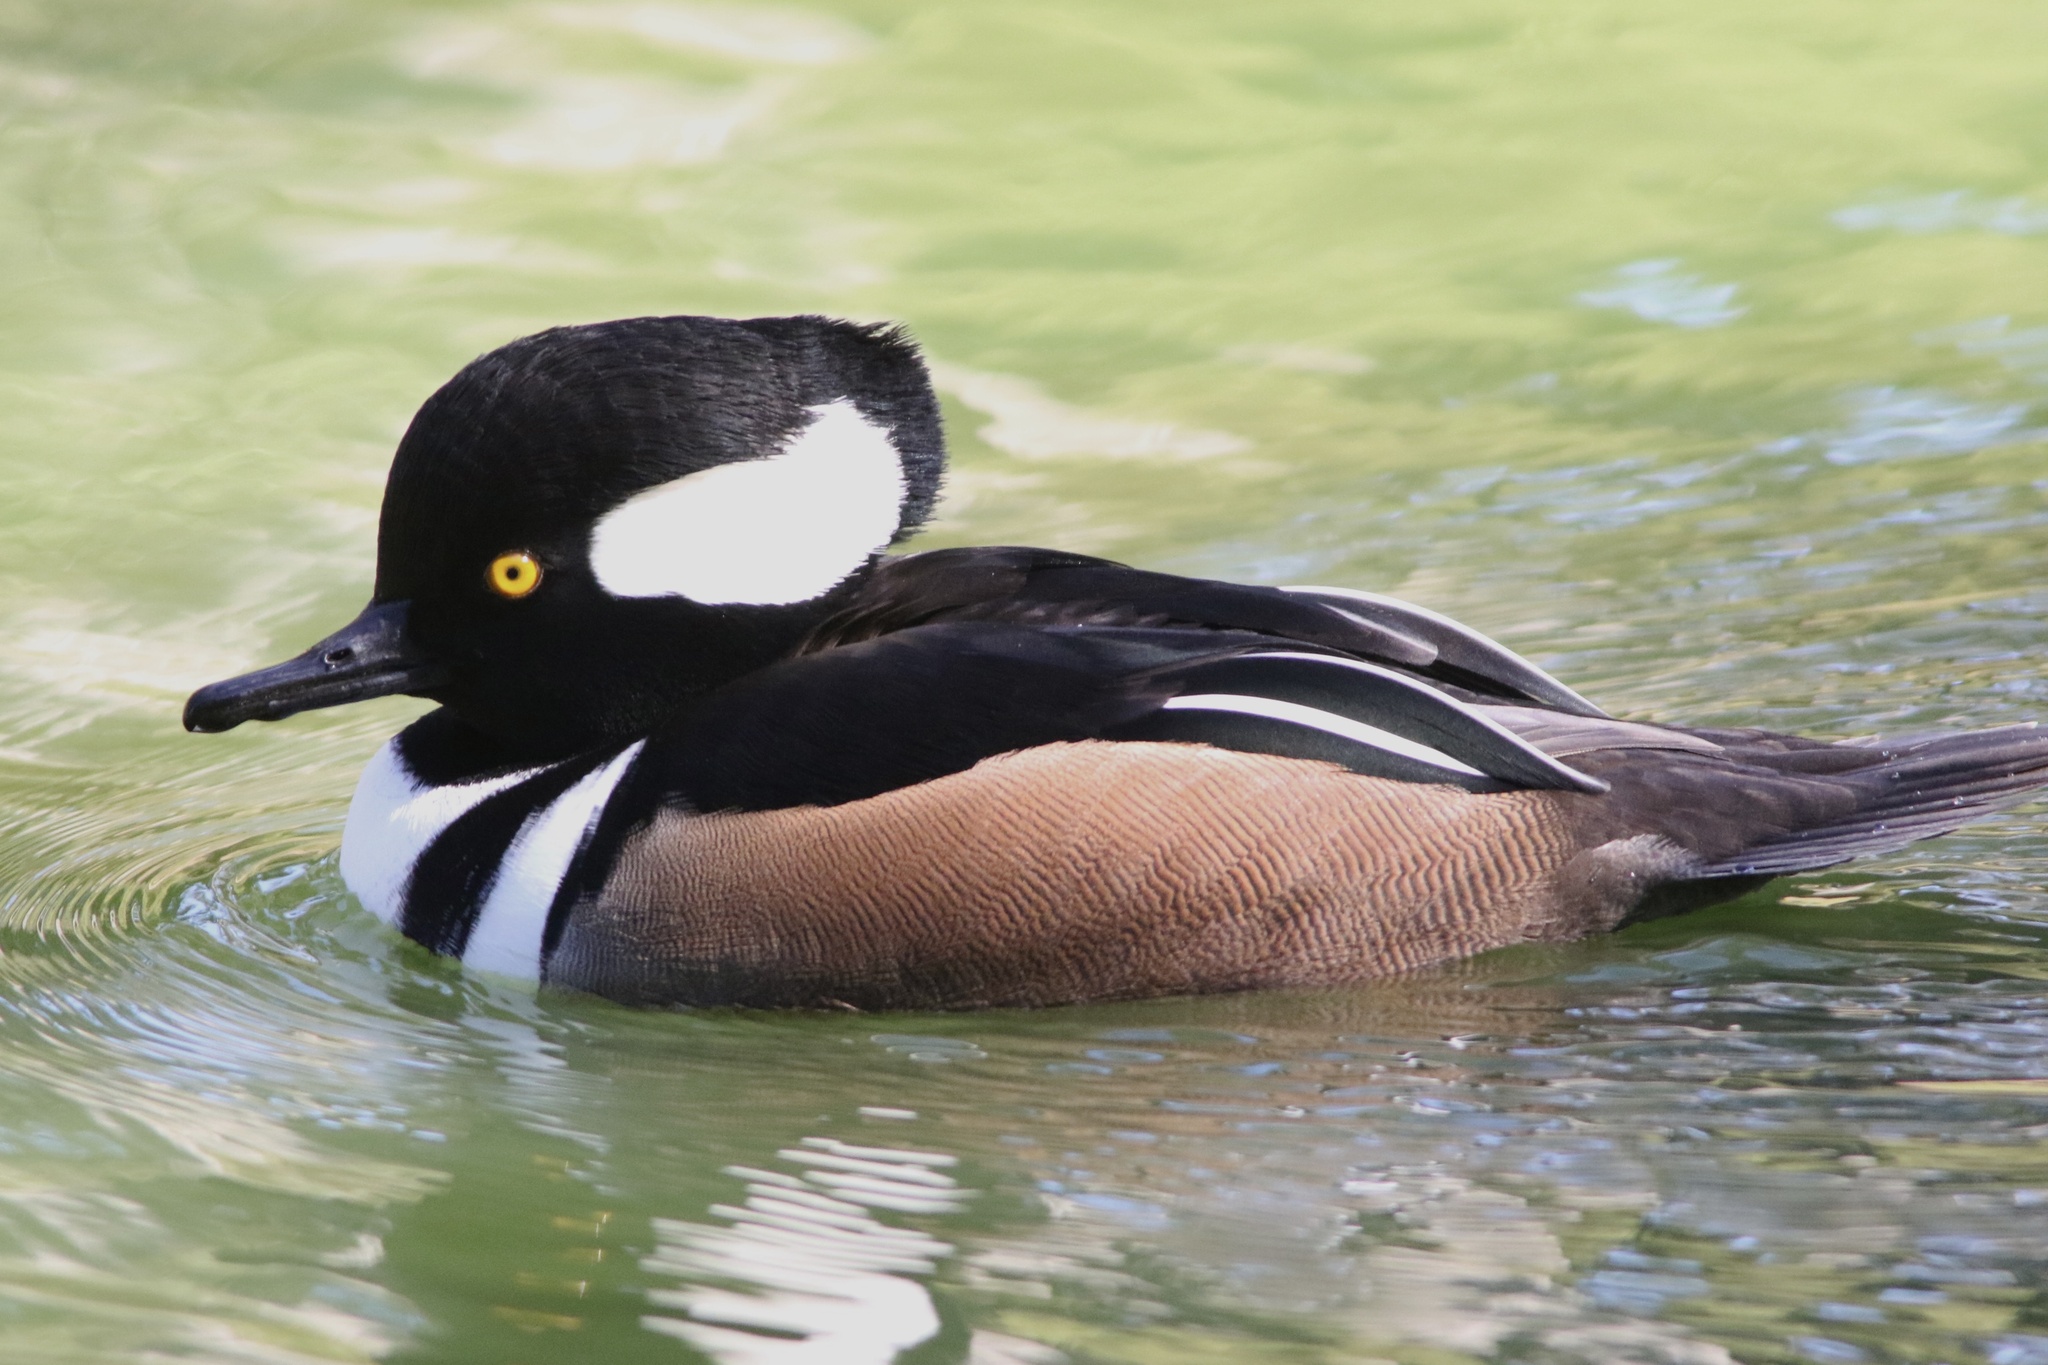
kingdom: Animalia
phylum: Chordata
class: Aves
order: Anseriformes
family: Anatidae
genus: Lophodytes
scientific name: Lophodytes cucullatus
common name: Hooded merganser
